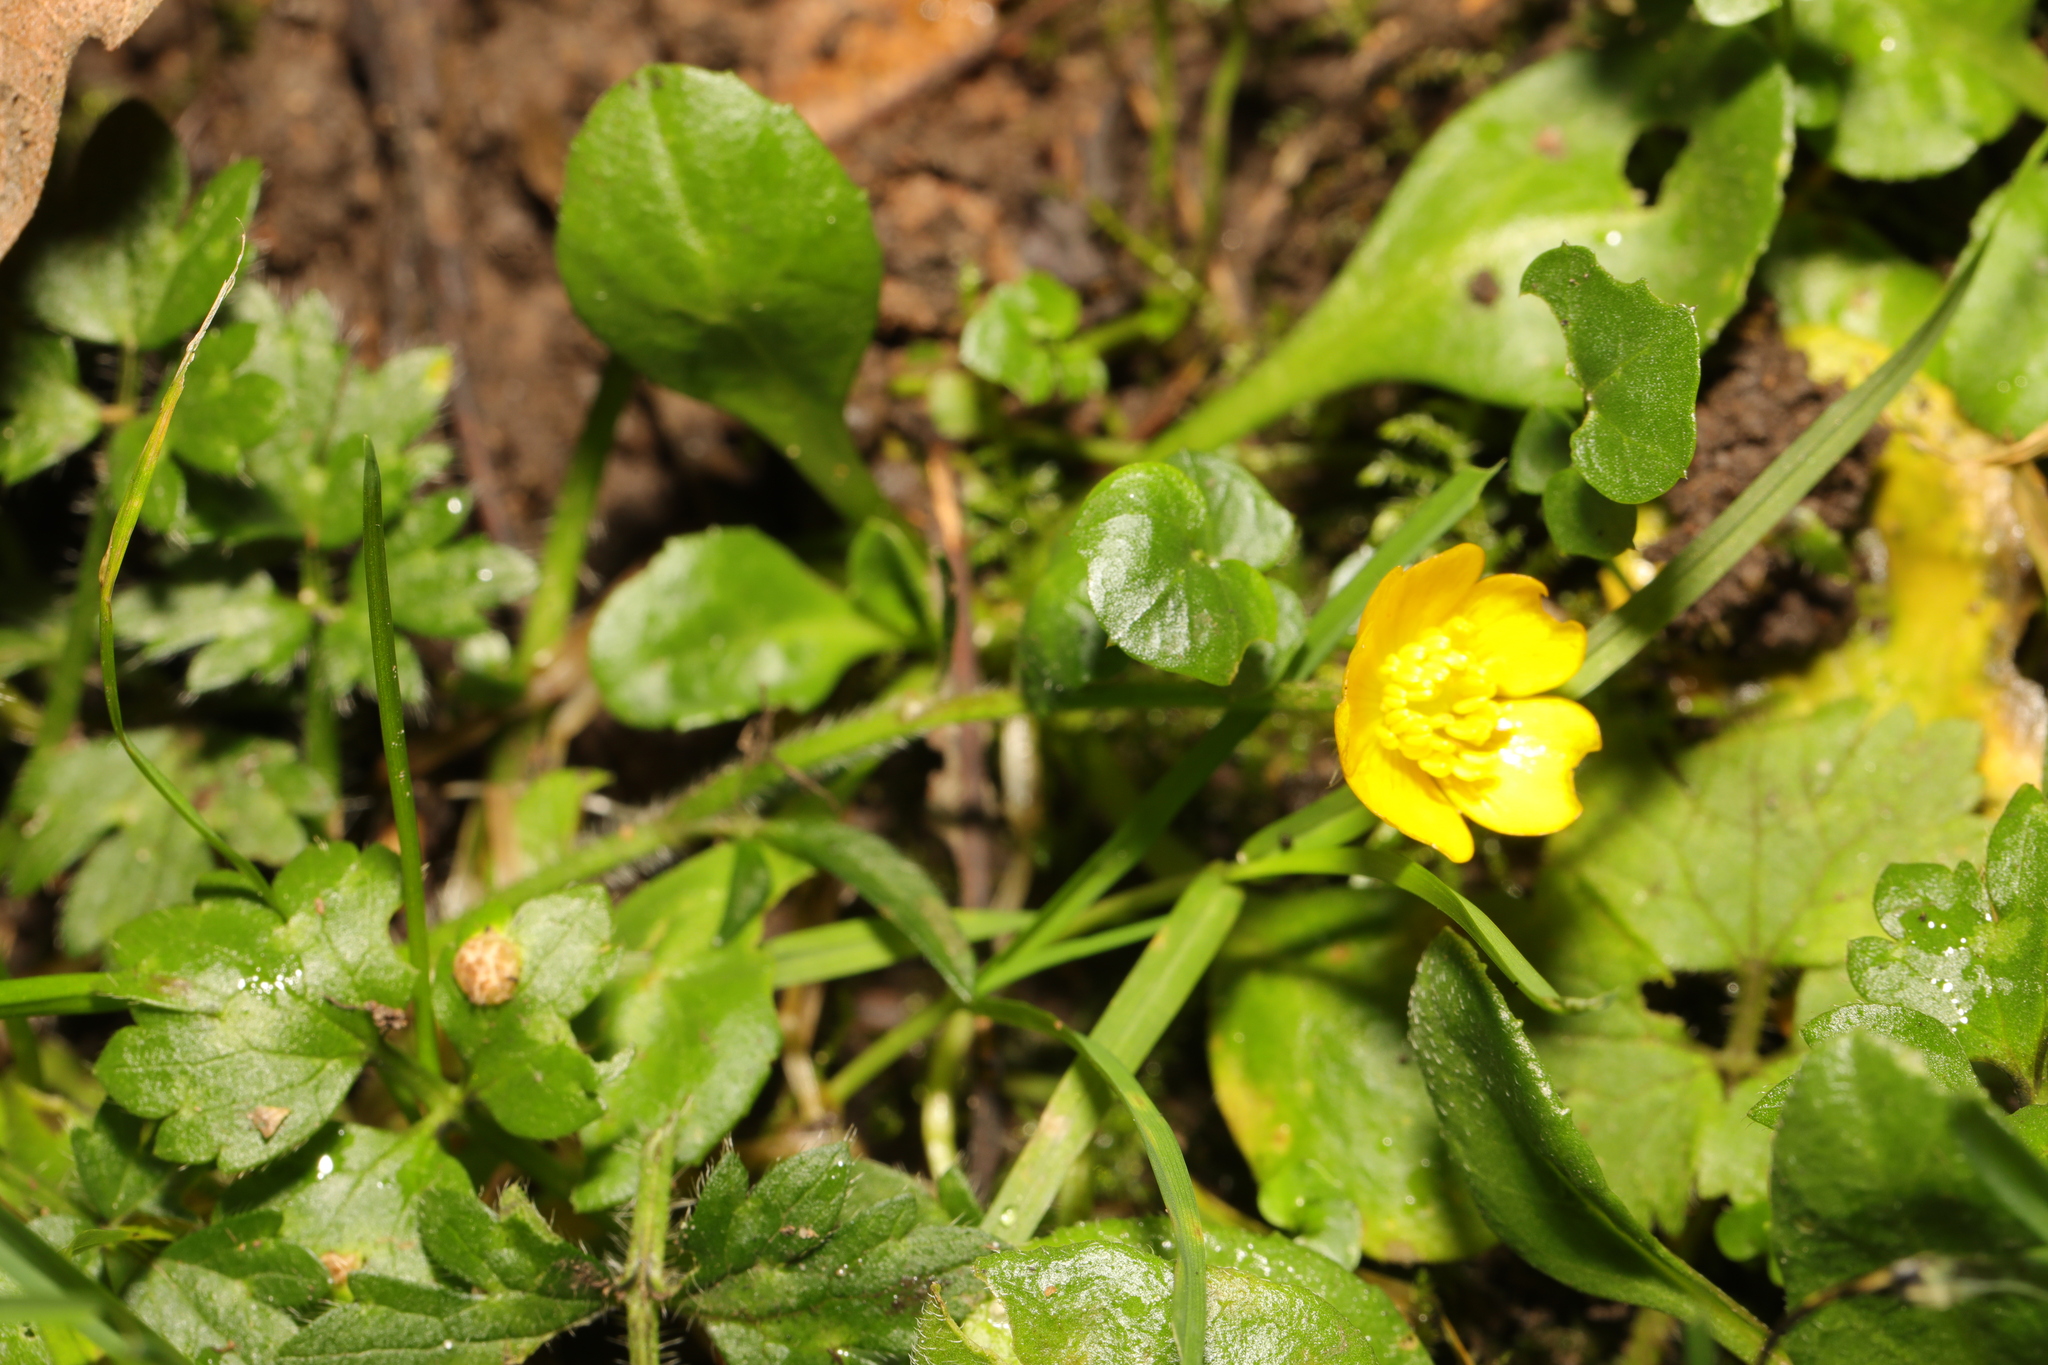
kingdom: Plantae
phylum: Tracheophyta
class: Magnoliopsida
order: Ranunculales
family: Ranunculaceae
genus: Ranunculus
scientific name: Ranunculus repens
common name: Creeping buttercup
